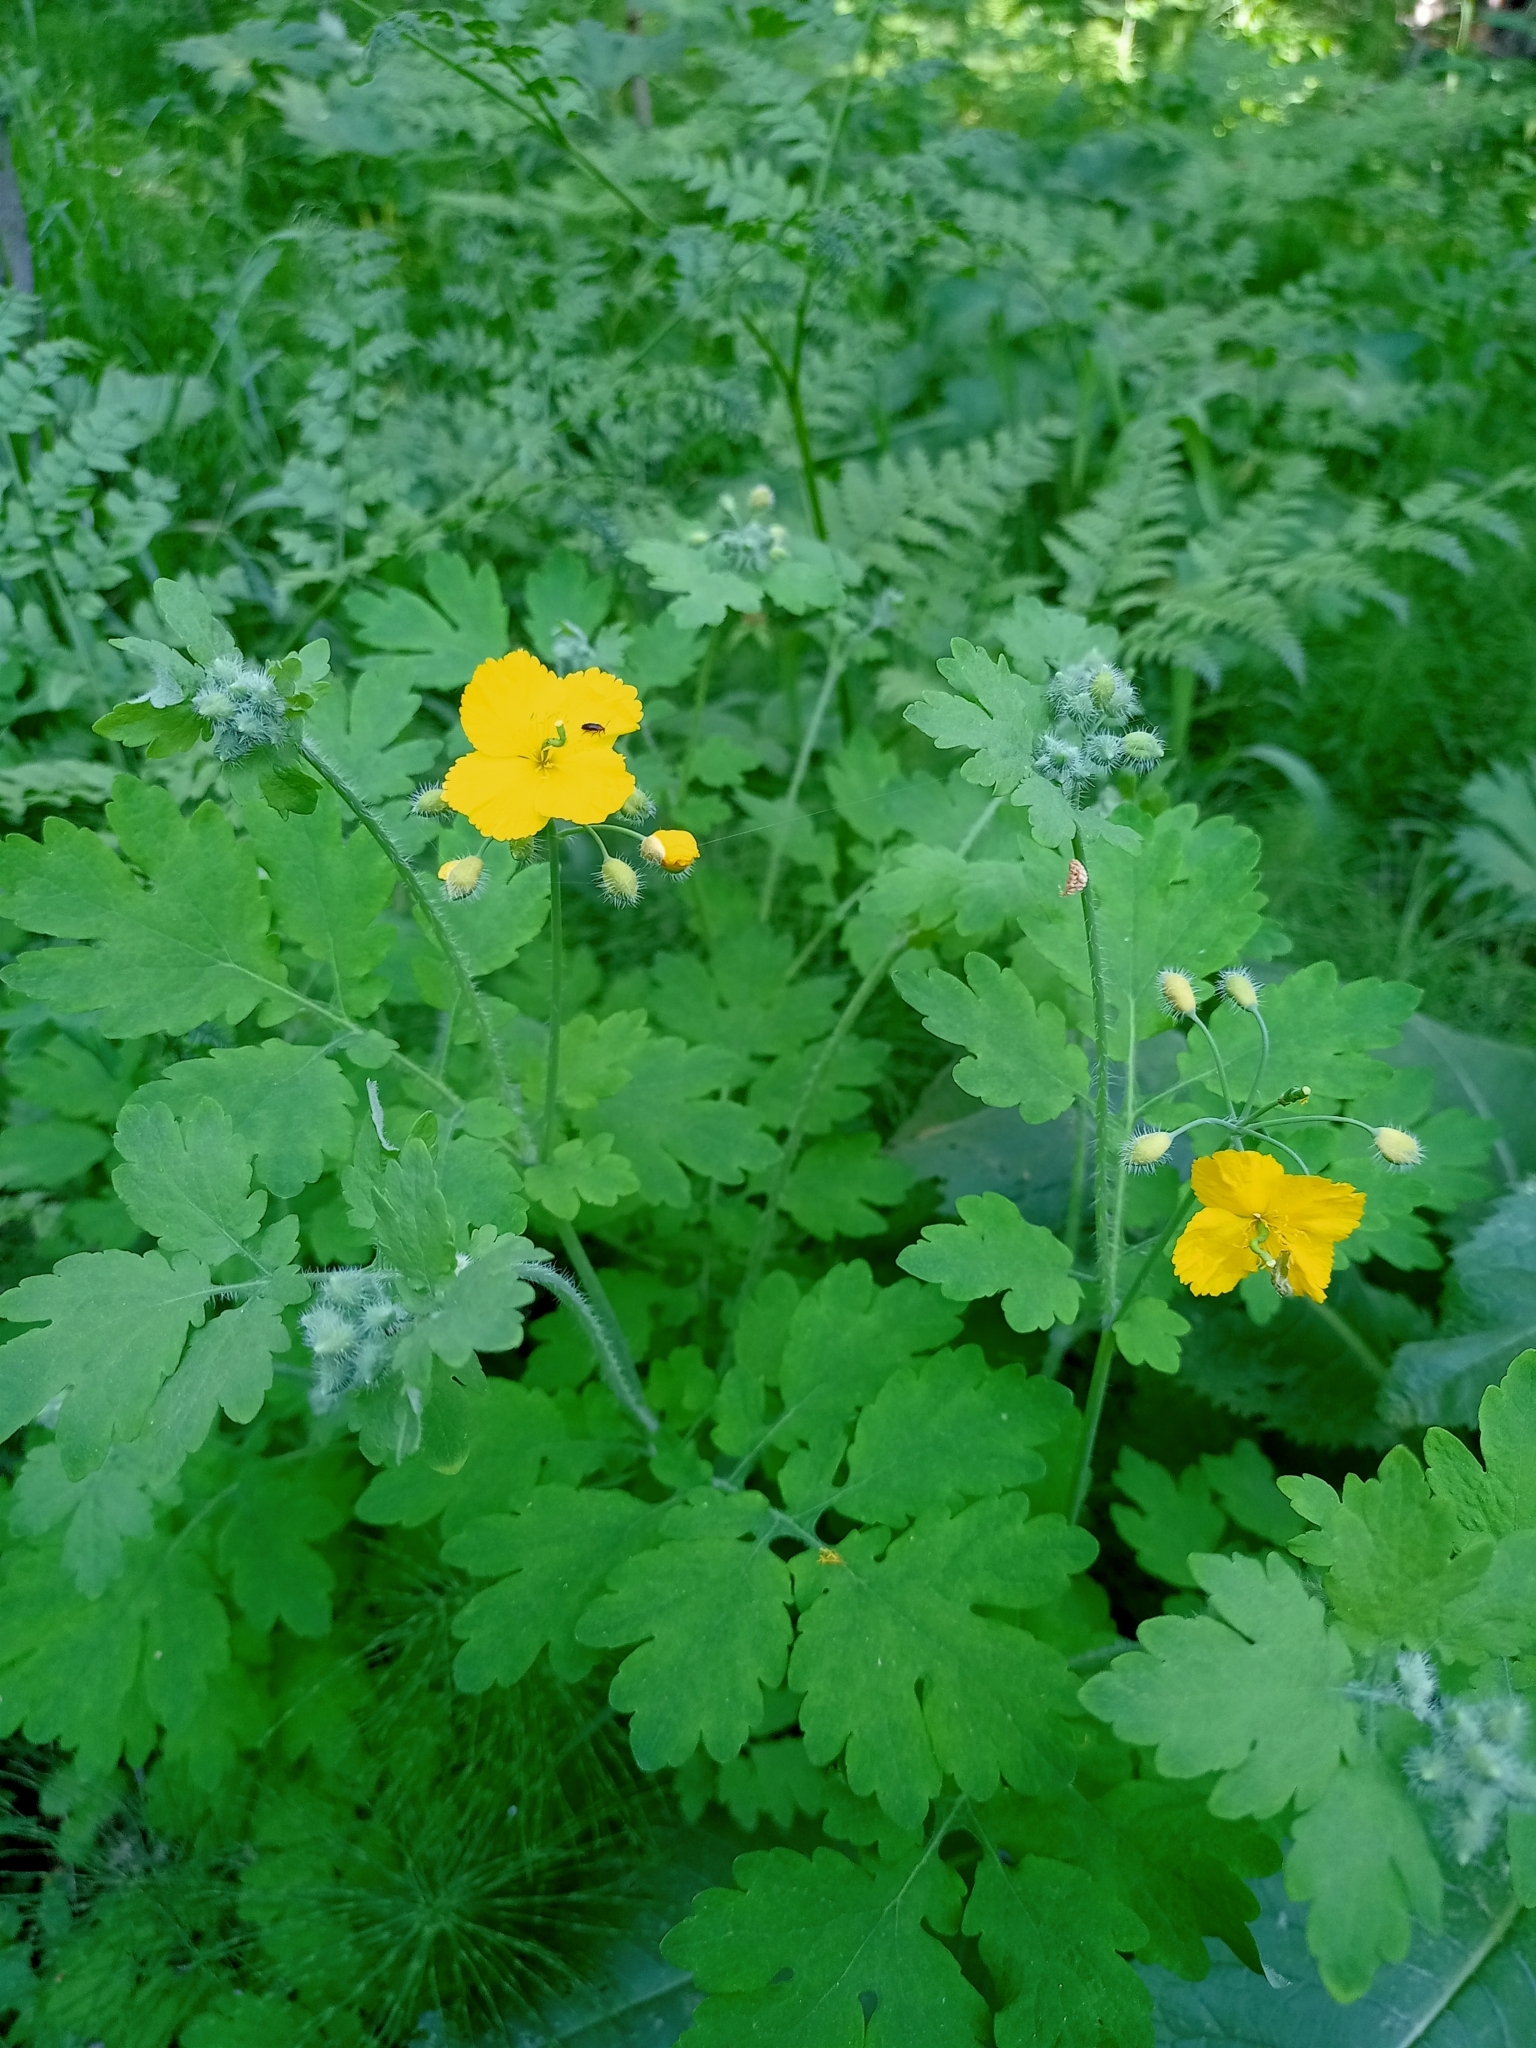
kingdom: Plantae
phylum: Tracheophyta
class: Magnoliopsida
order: Ranunculales
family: Papaveraceae
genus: Chelidonium
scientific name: Chelidonium majus
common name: Greater celandine
